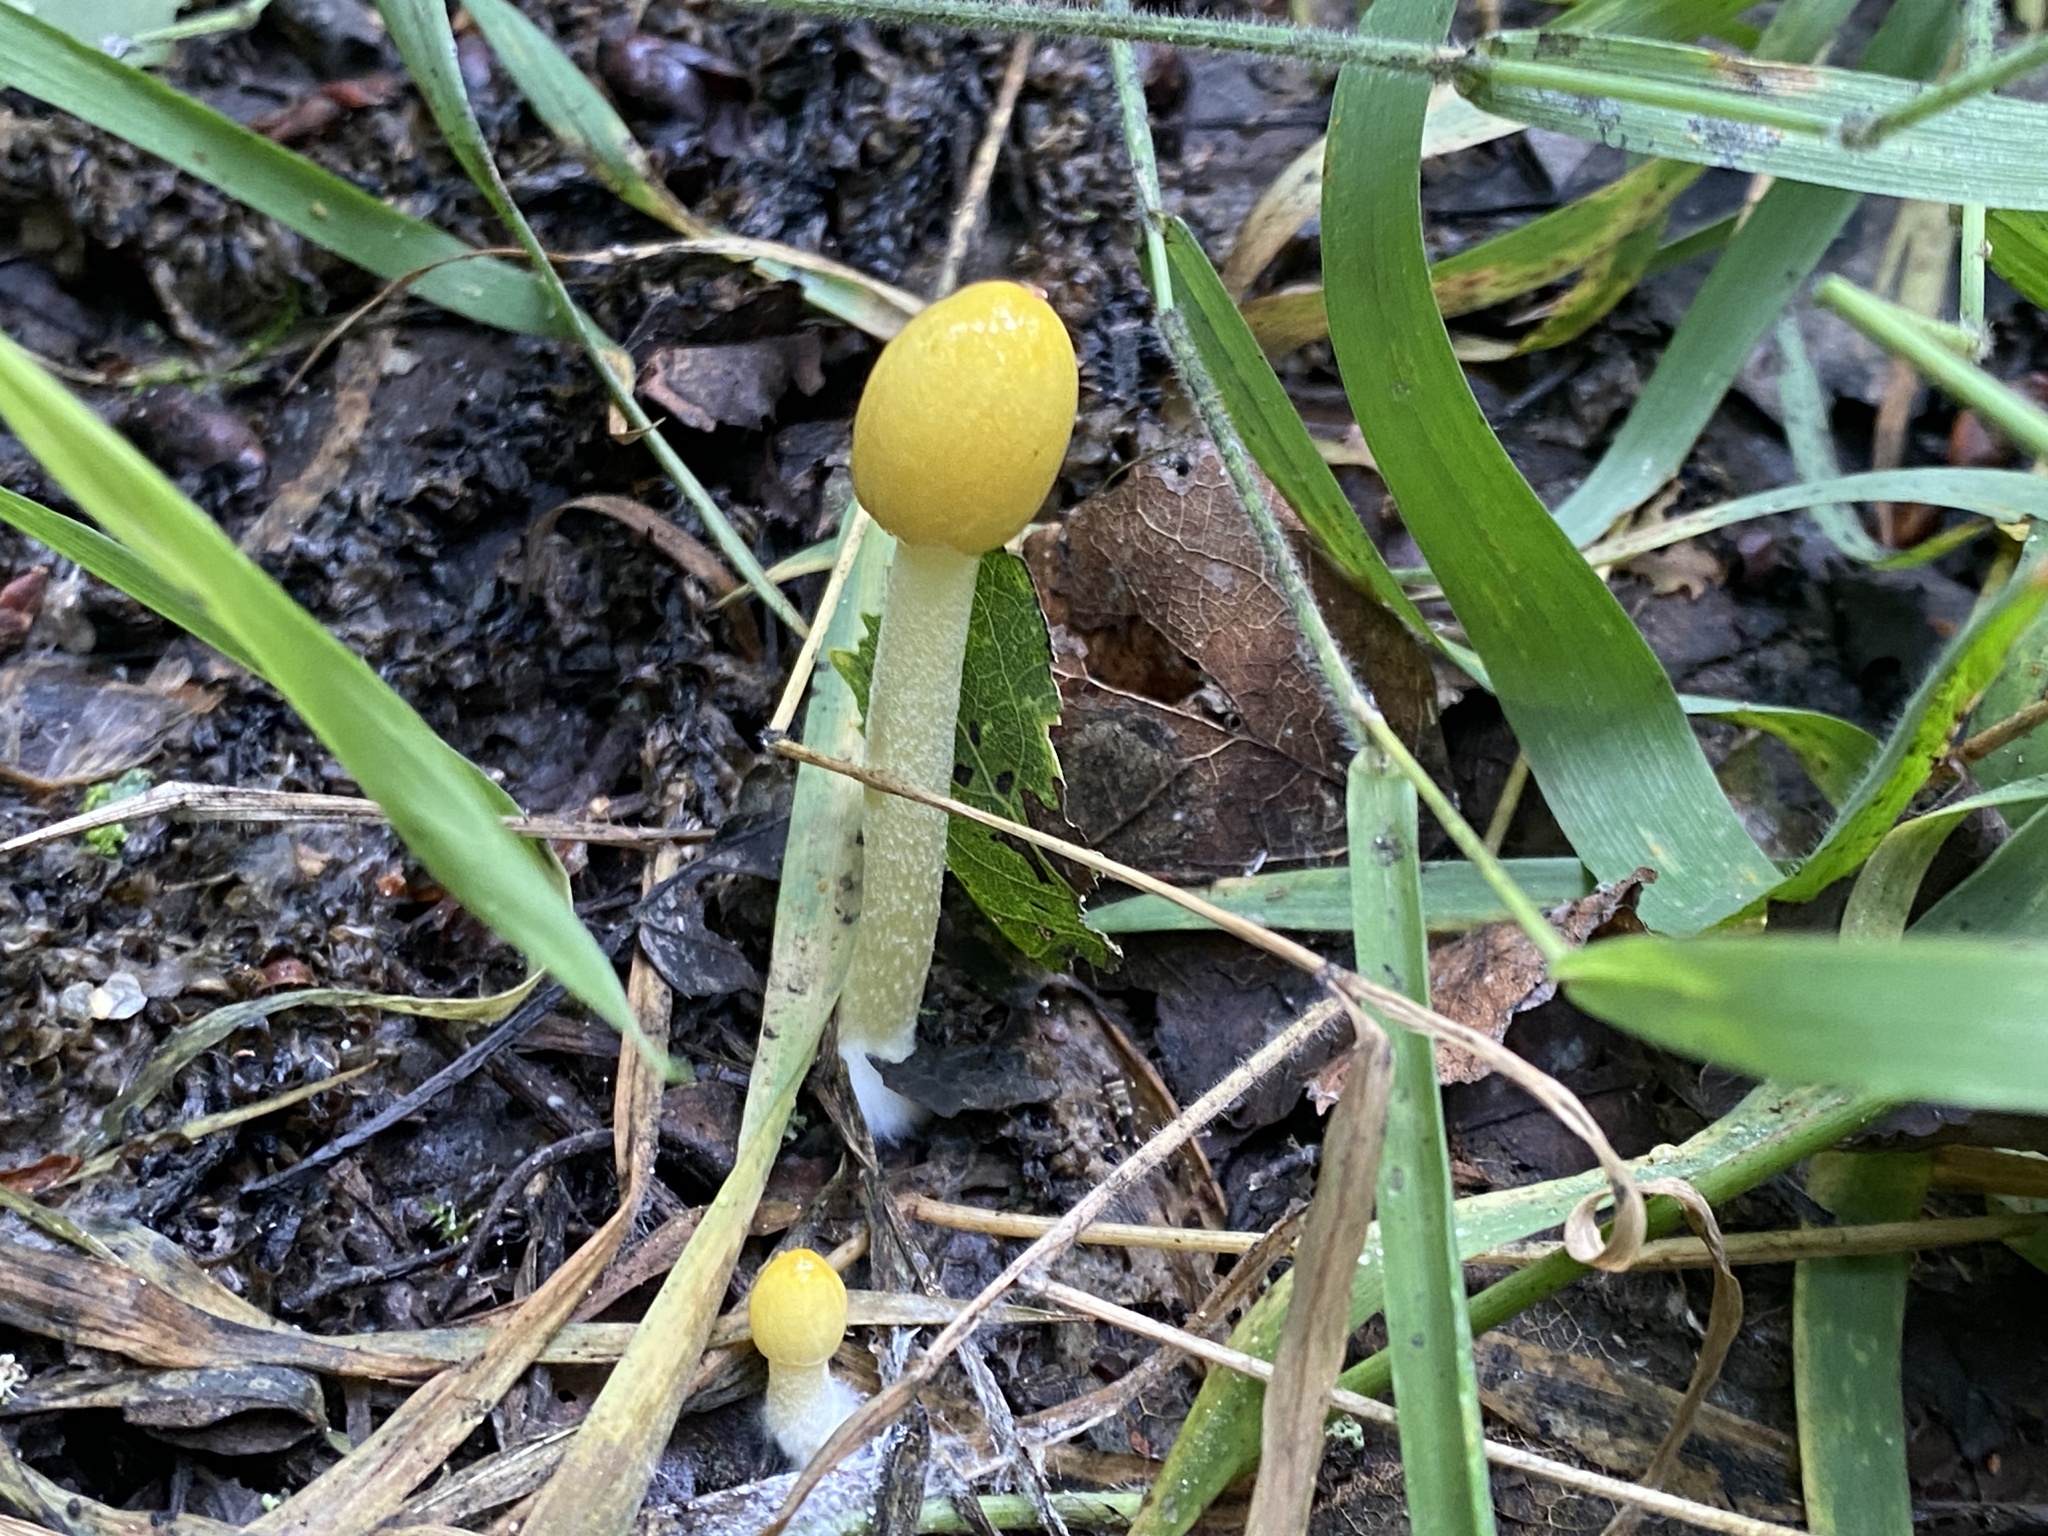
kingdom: Fungi
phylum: Basidiomycota
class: Agaricomycetes
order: Agaricales
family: Bolbitiaceae
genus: Bolbitius
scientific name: Bolbitius titubans
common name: Yellow fieldcap
